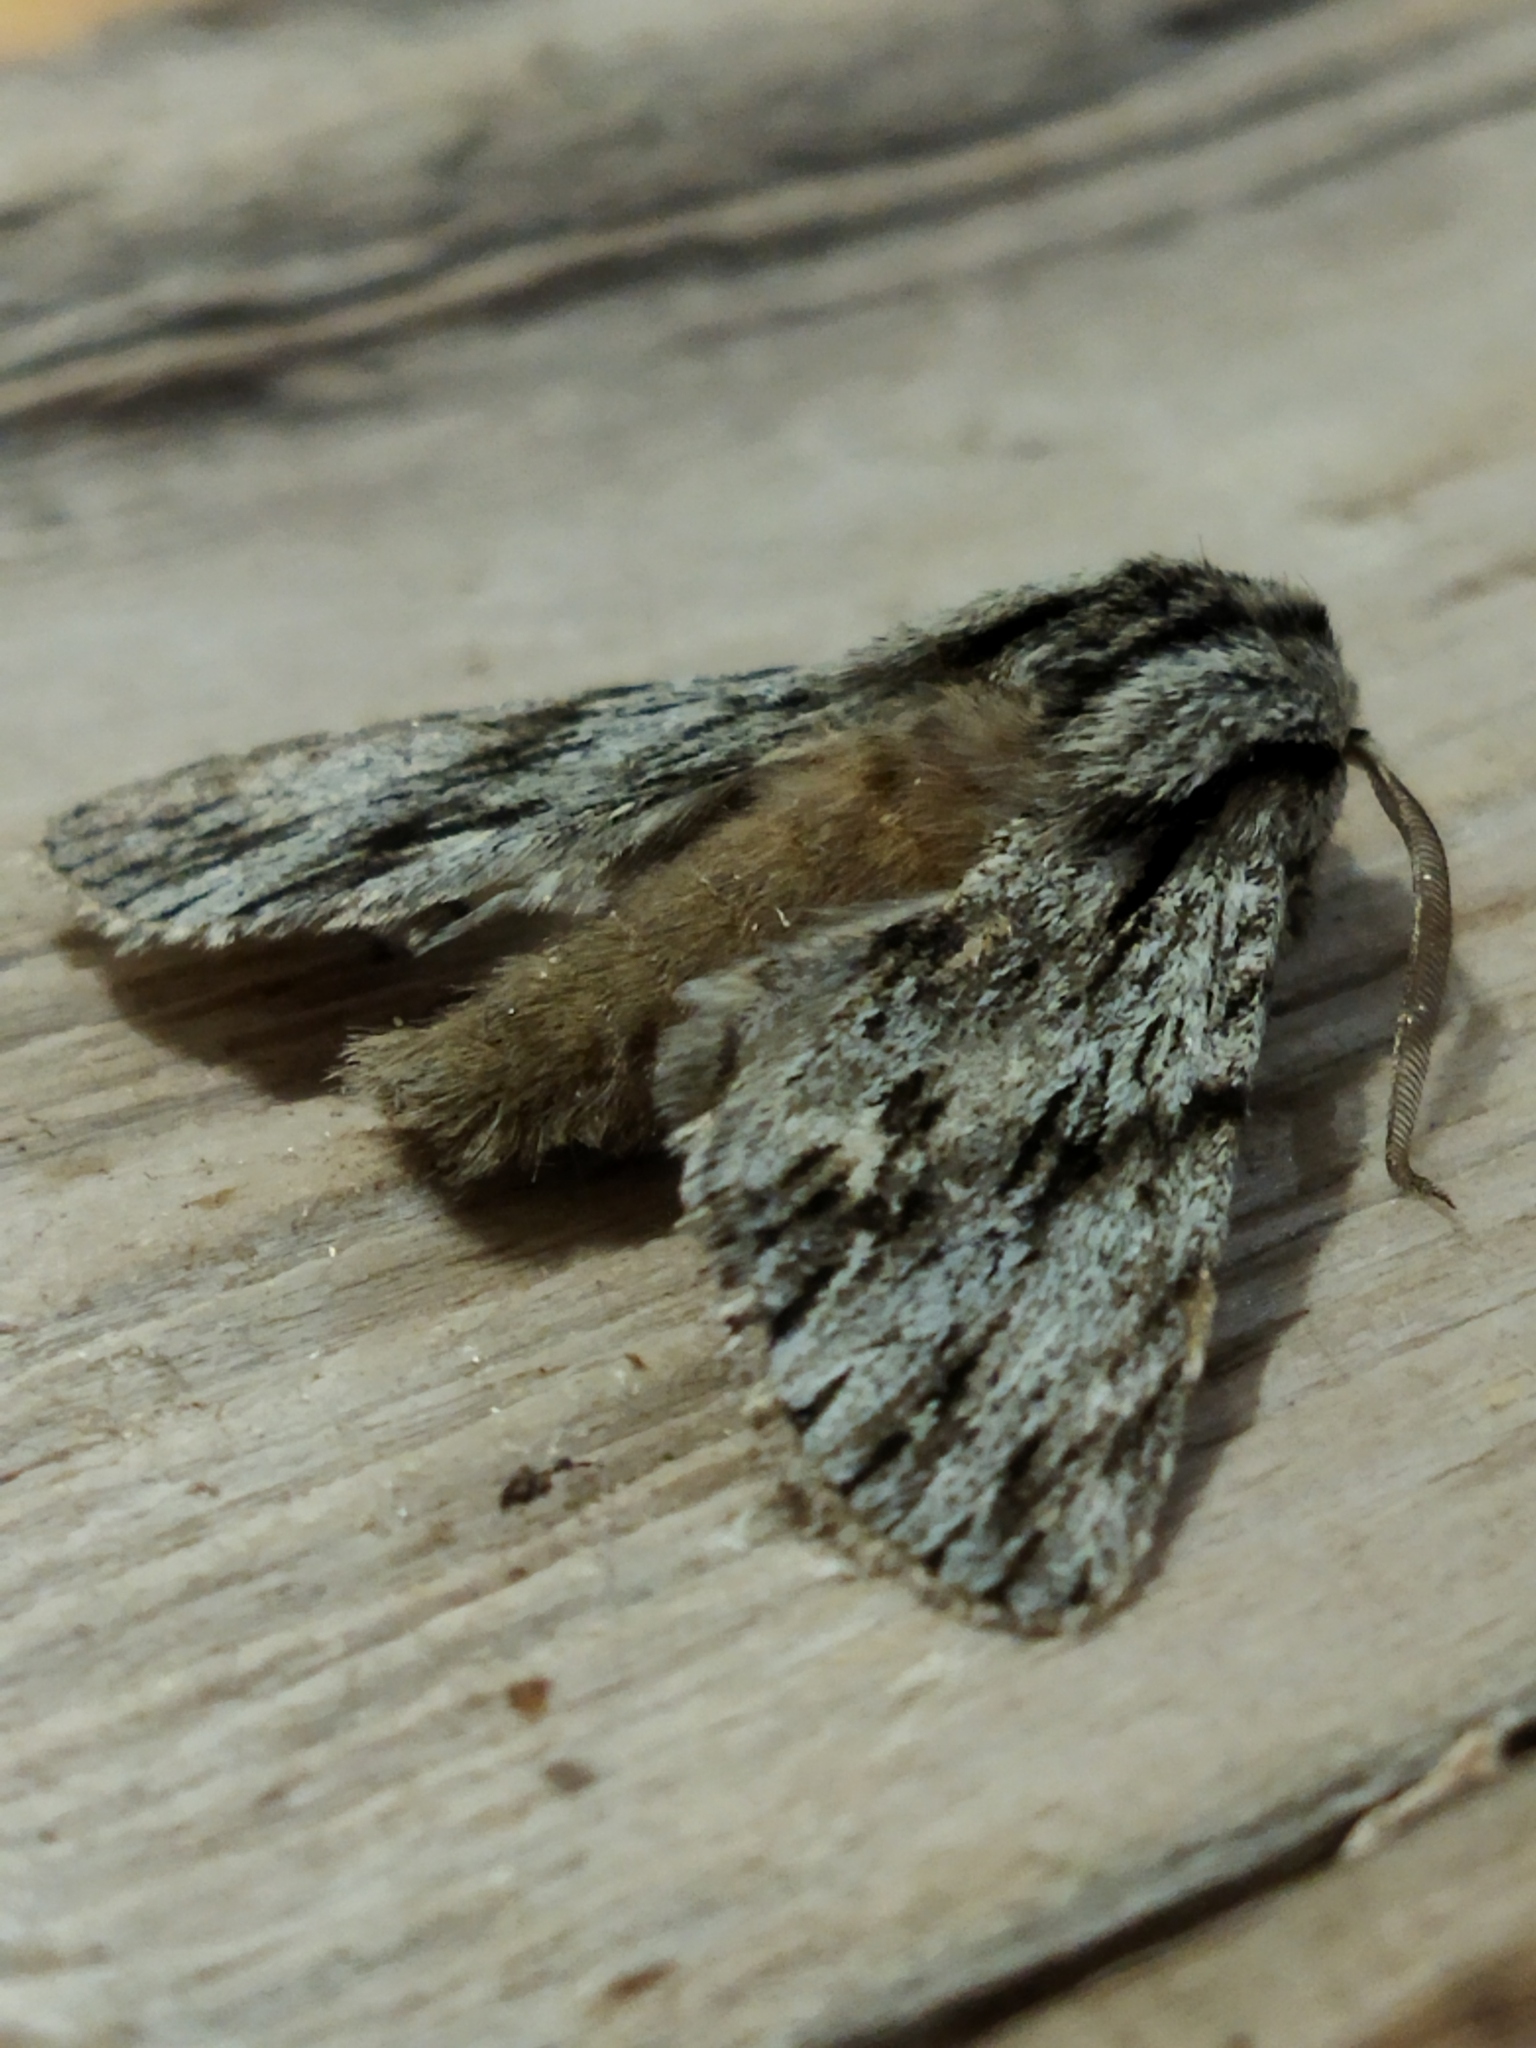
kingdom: Animalia
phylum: Arthropoda
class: Insecta
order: Lepidoptera
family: Noctuidae
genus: Asteroscopus
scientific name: Asteroscopus sphinx
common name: The sprawler
